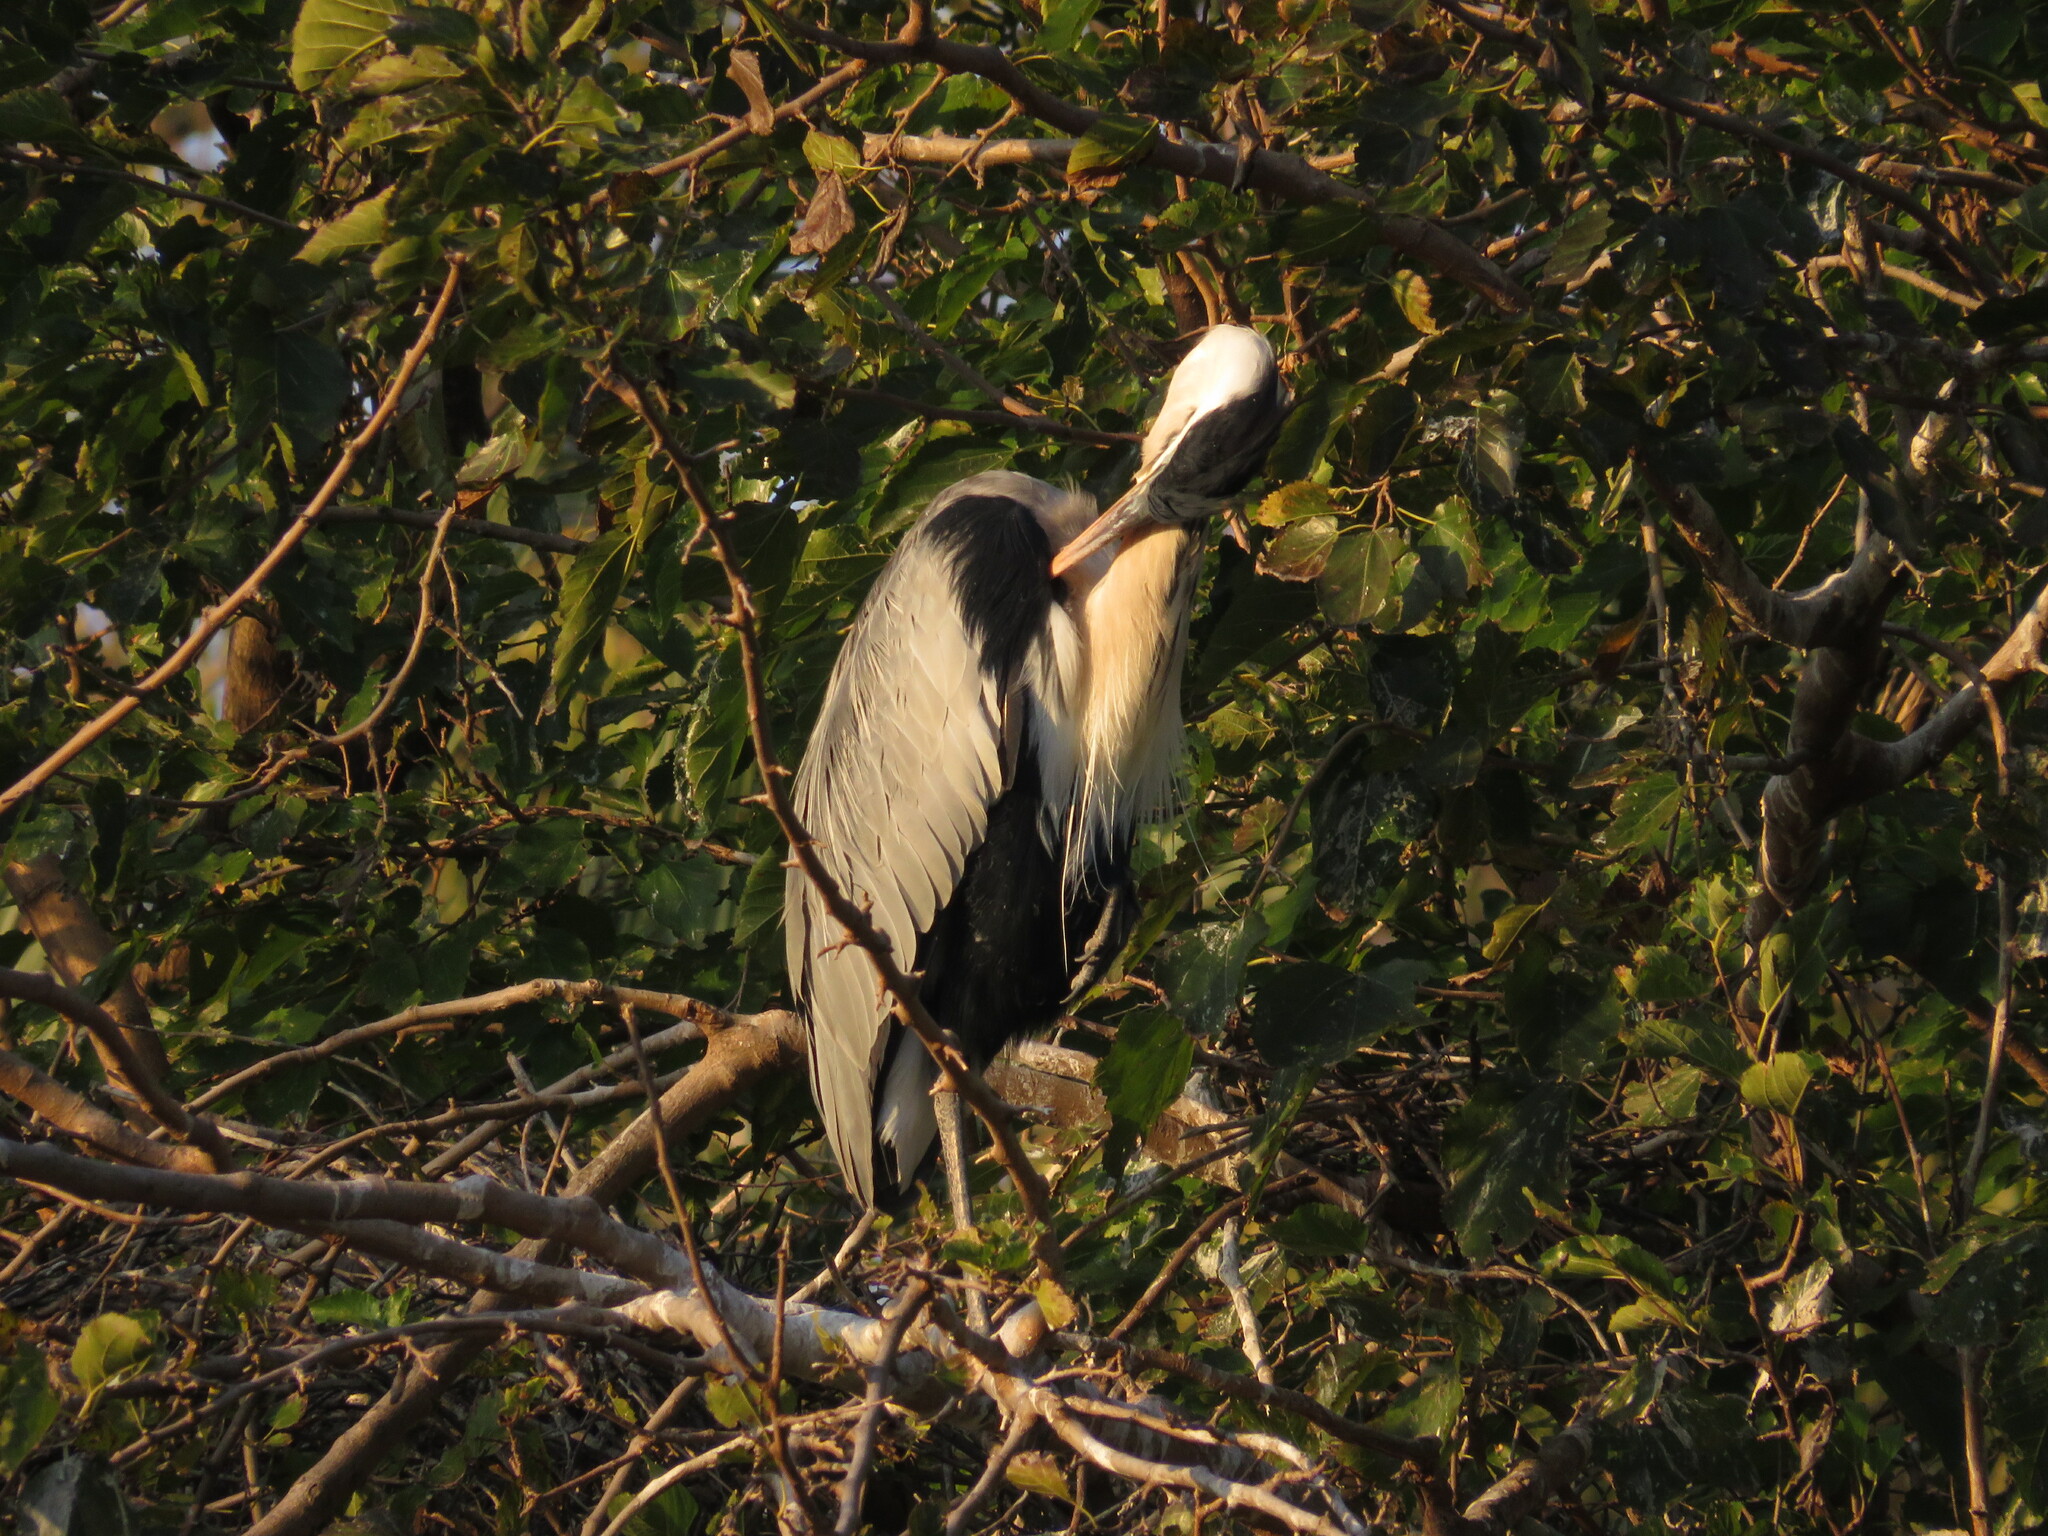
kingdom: Animalia
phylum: Chordata
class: Aves
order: Pelecaniformes
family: Ardeidae
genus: Ardea
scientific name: Ardea cocoi
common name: Cocoi heron
